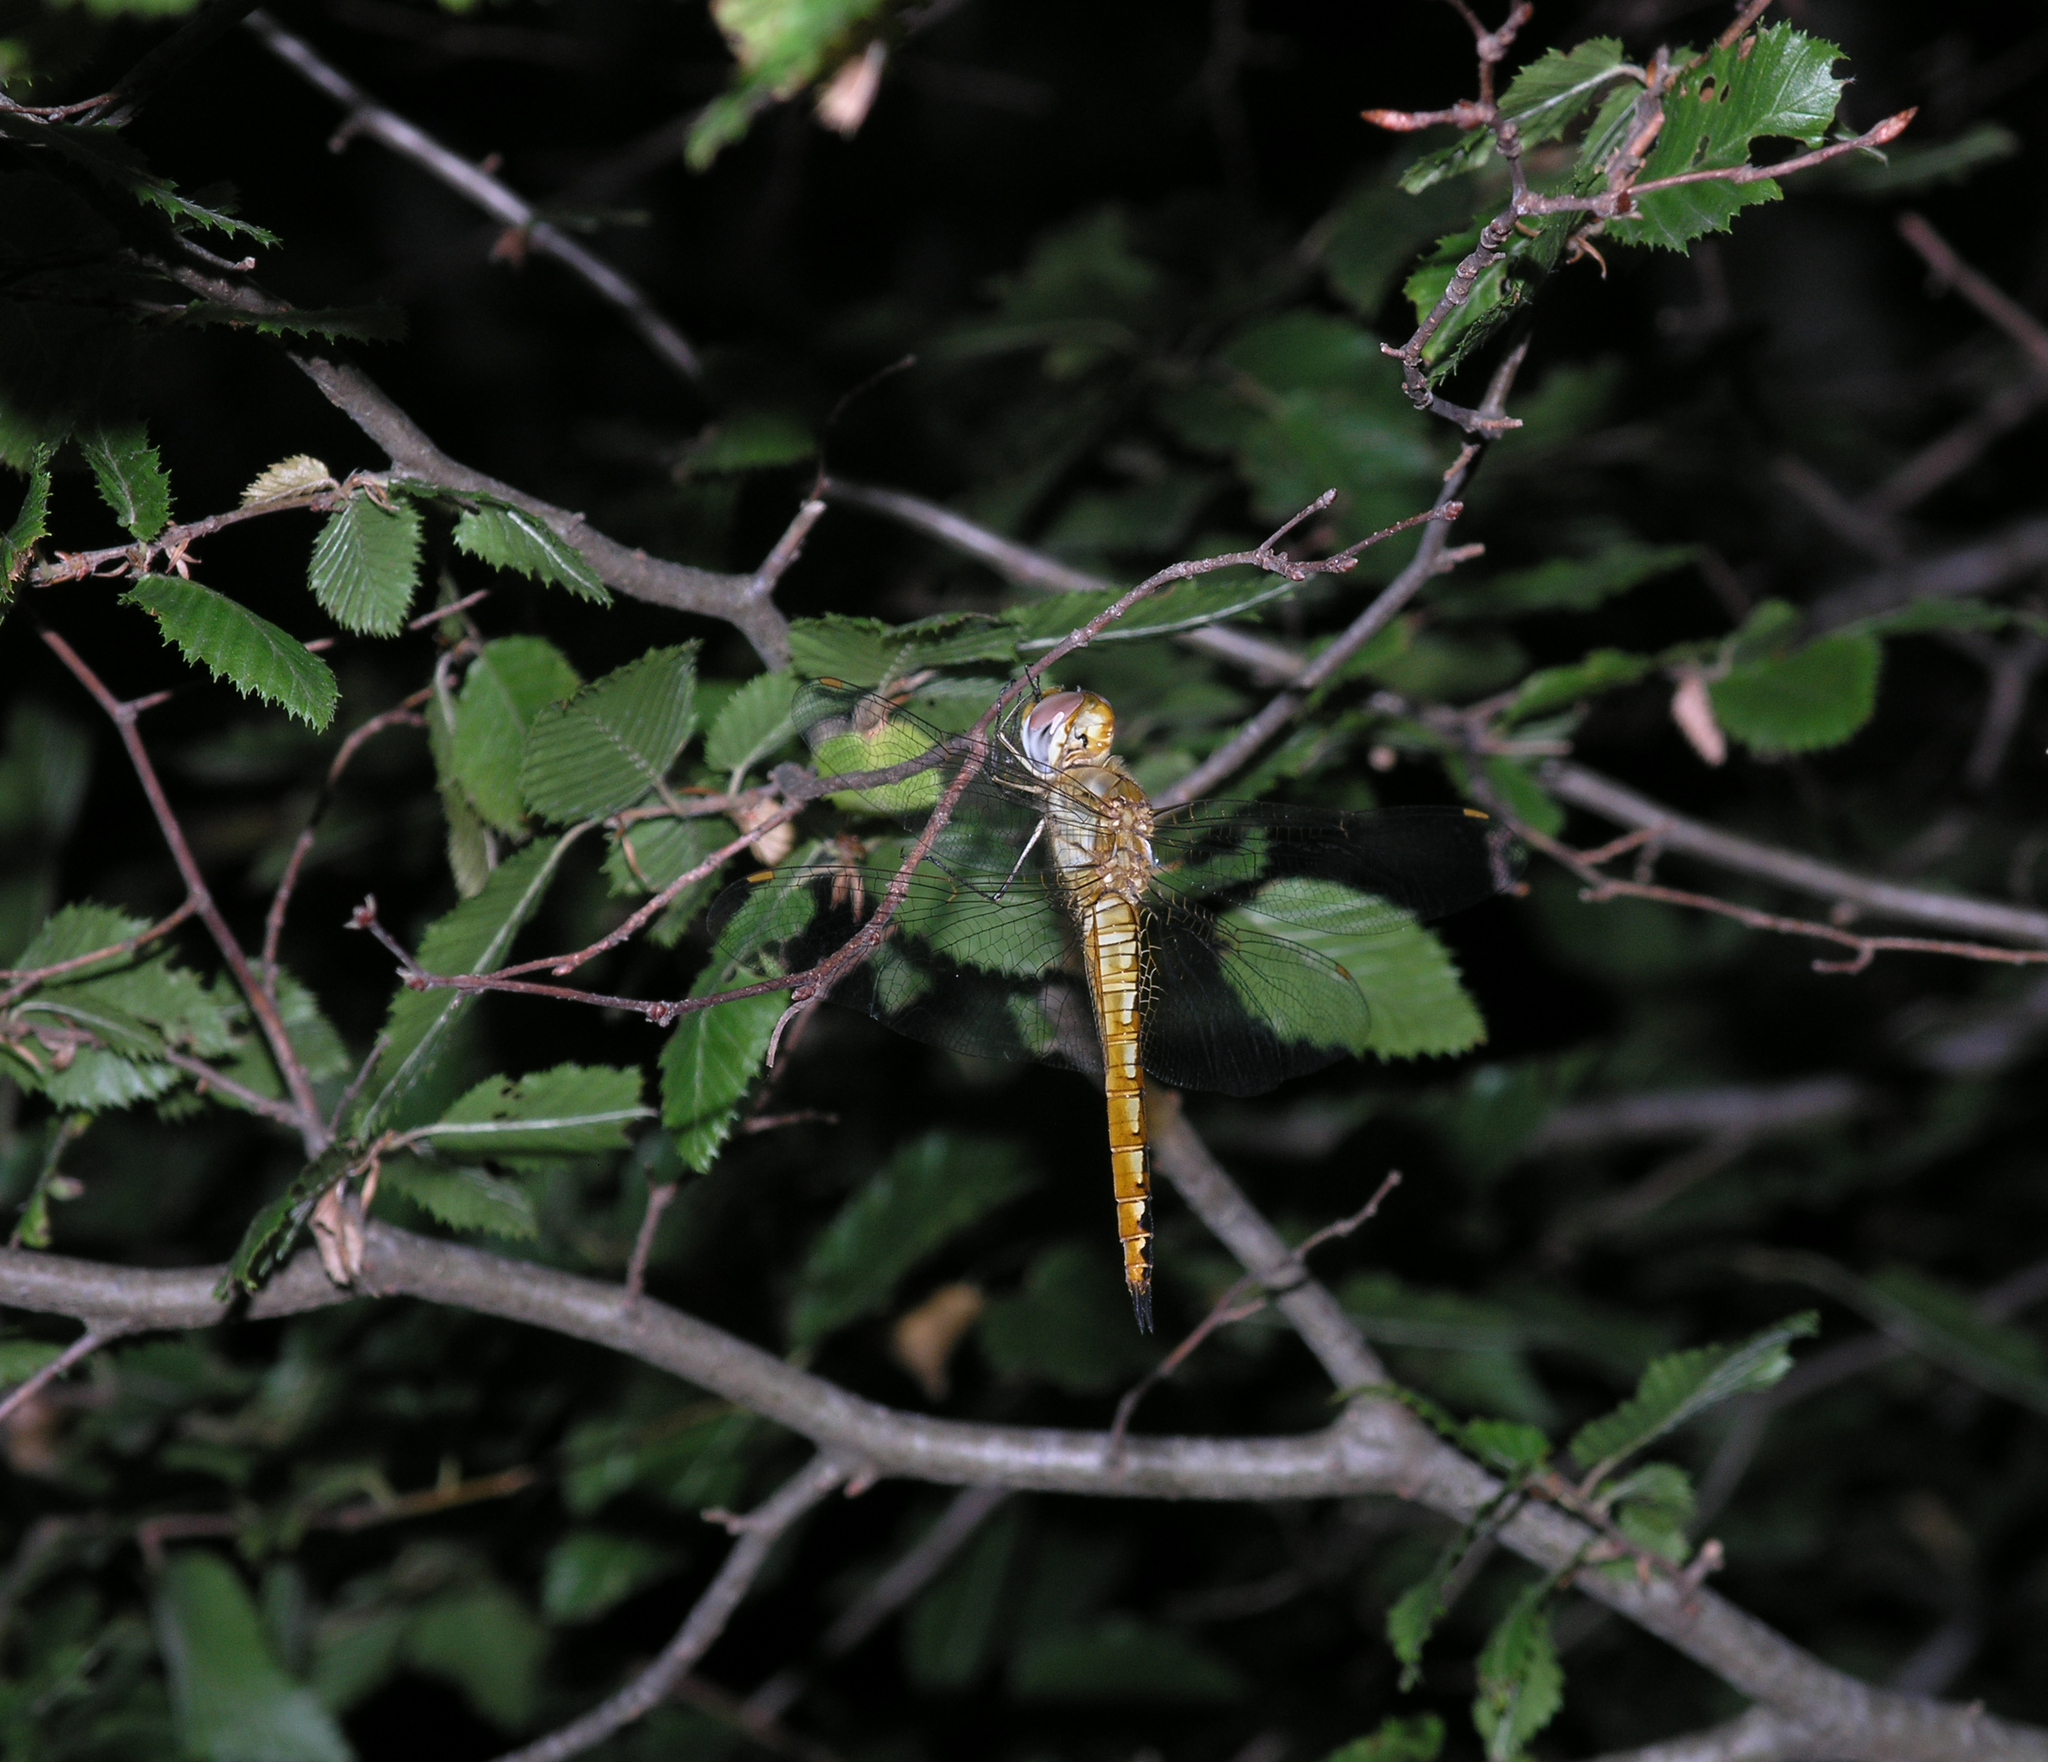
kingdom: Plantae
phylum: Tracheophyta
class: Magnoliopsida
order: Fagales
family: Betulaceae
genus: Carpinus
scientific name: Carpinus orientalis
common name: Eastern hornbeam
